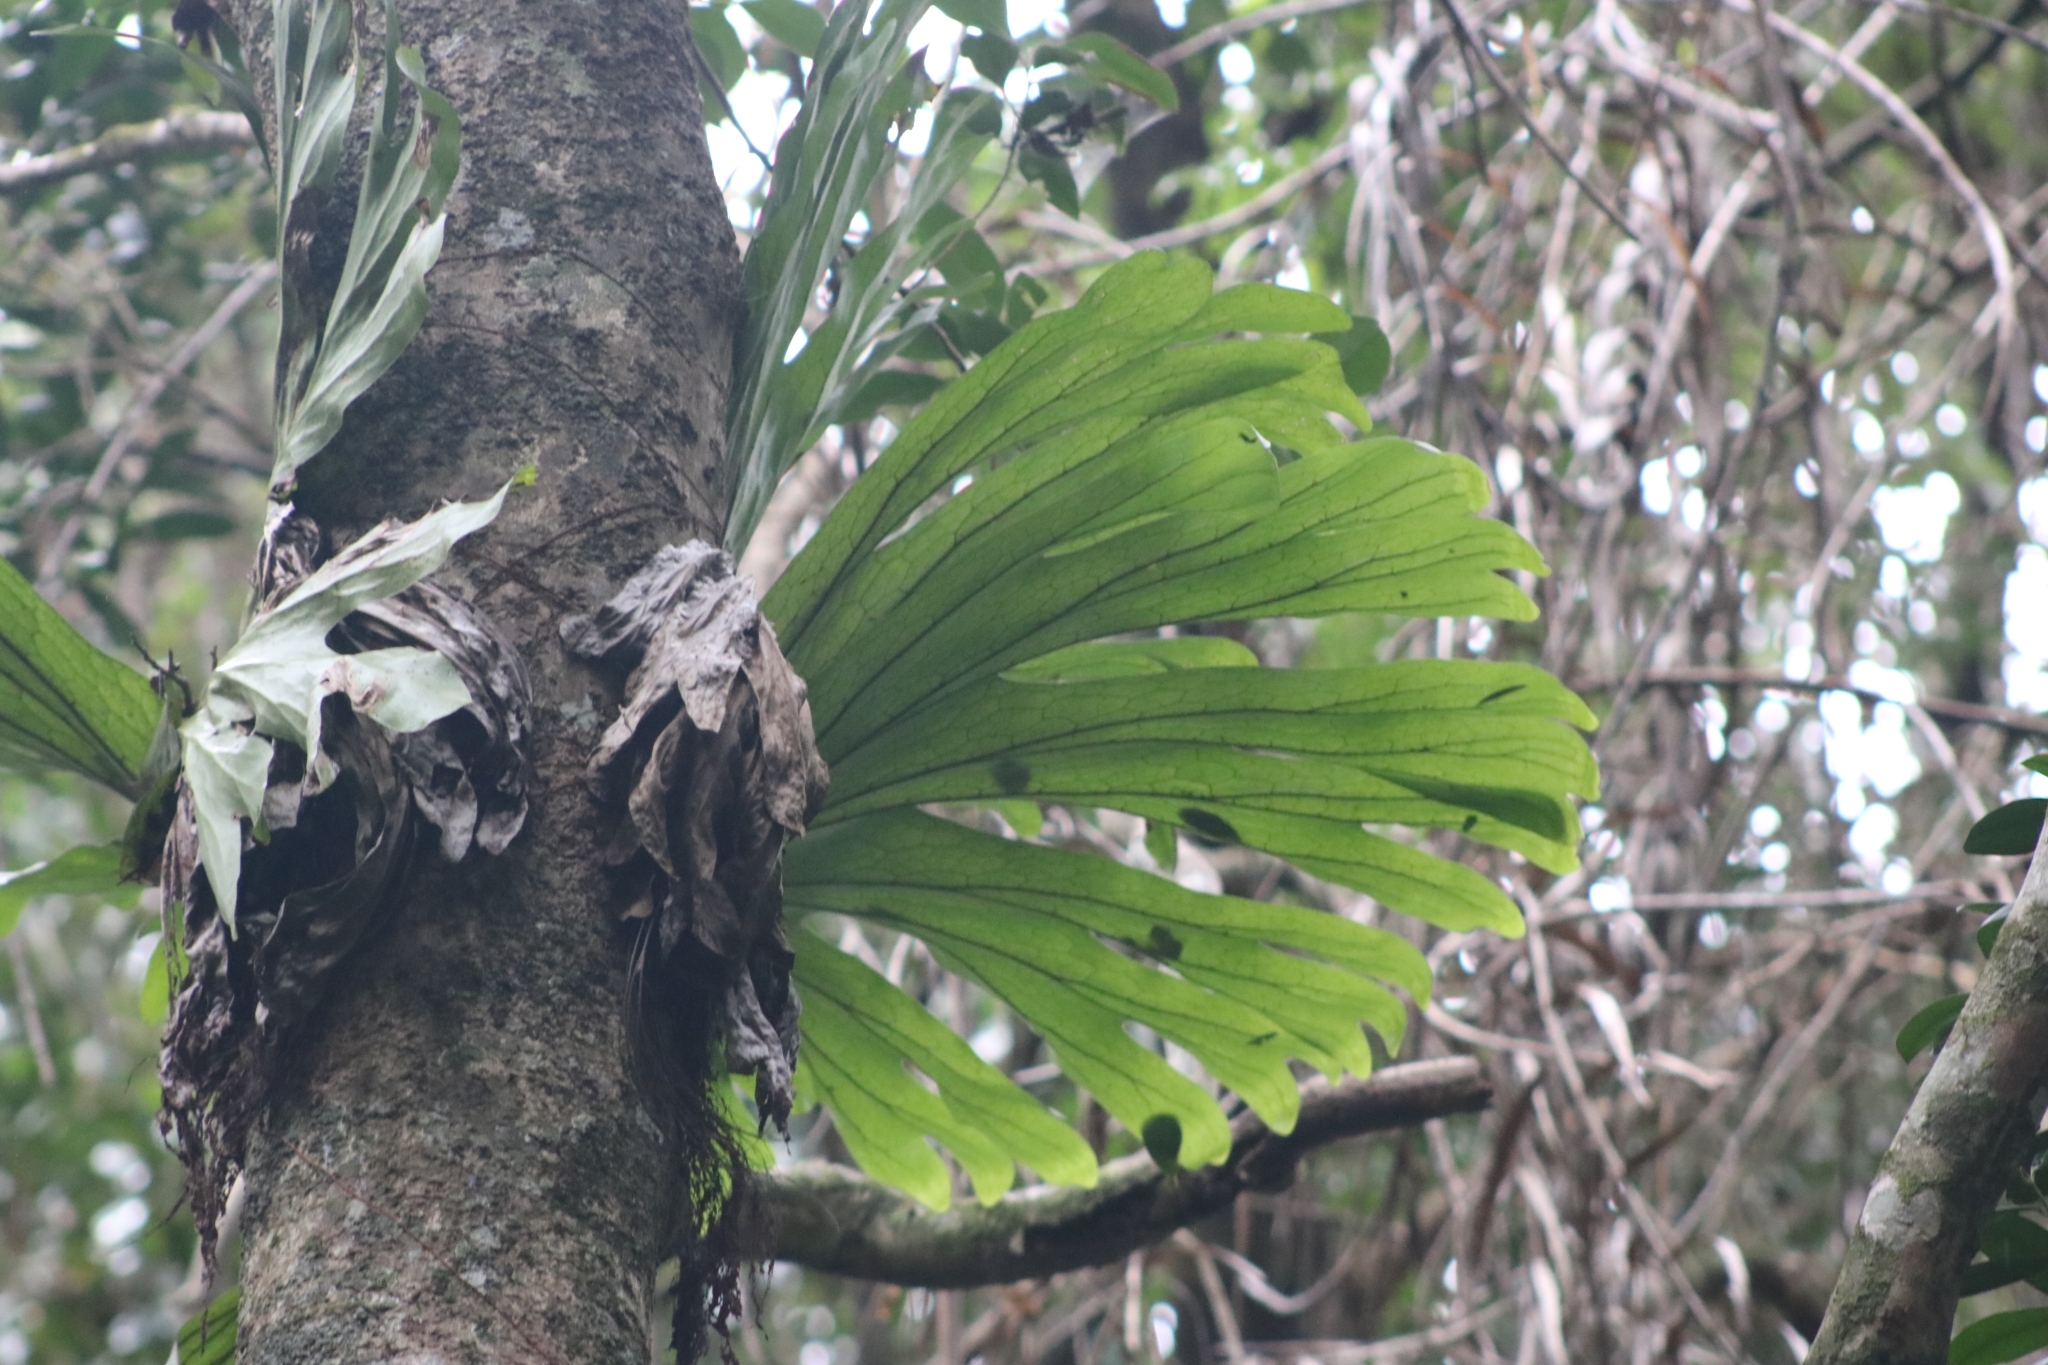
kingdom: Plantae
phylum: Tracheophyta
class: Polypodiopsida
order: Polypodiales
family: Polypodiaceae
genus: Platycerium
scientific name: Platycerium superbum
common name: Staghorn fern
